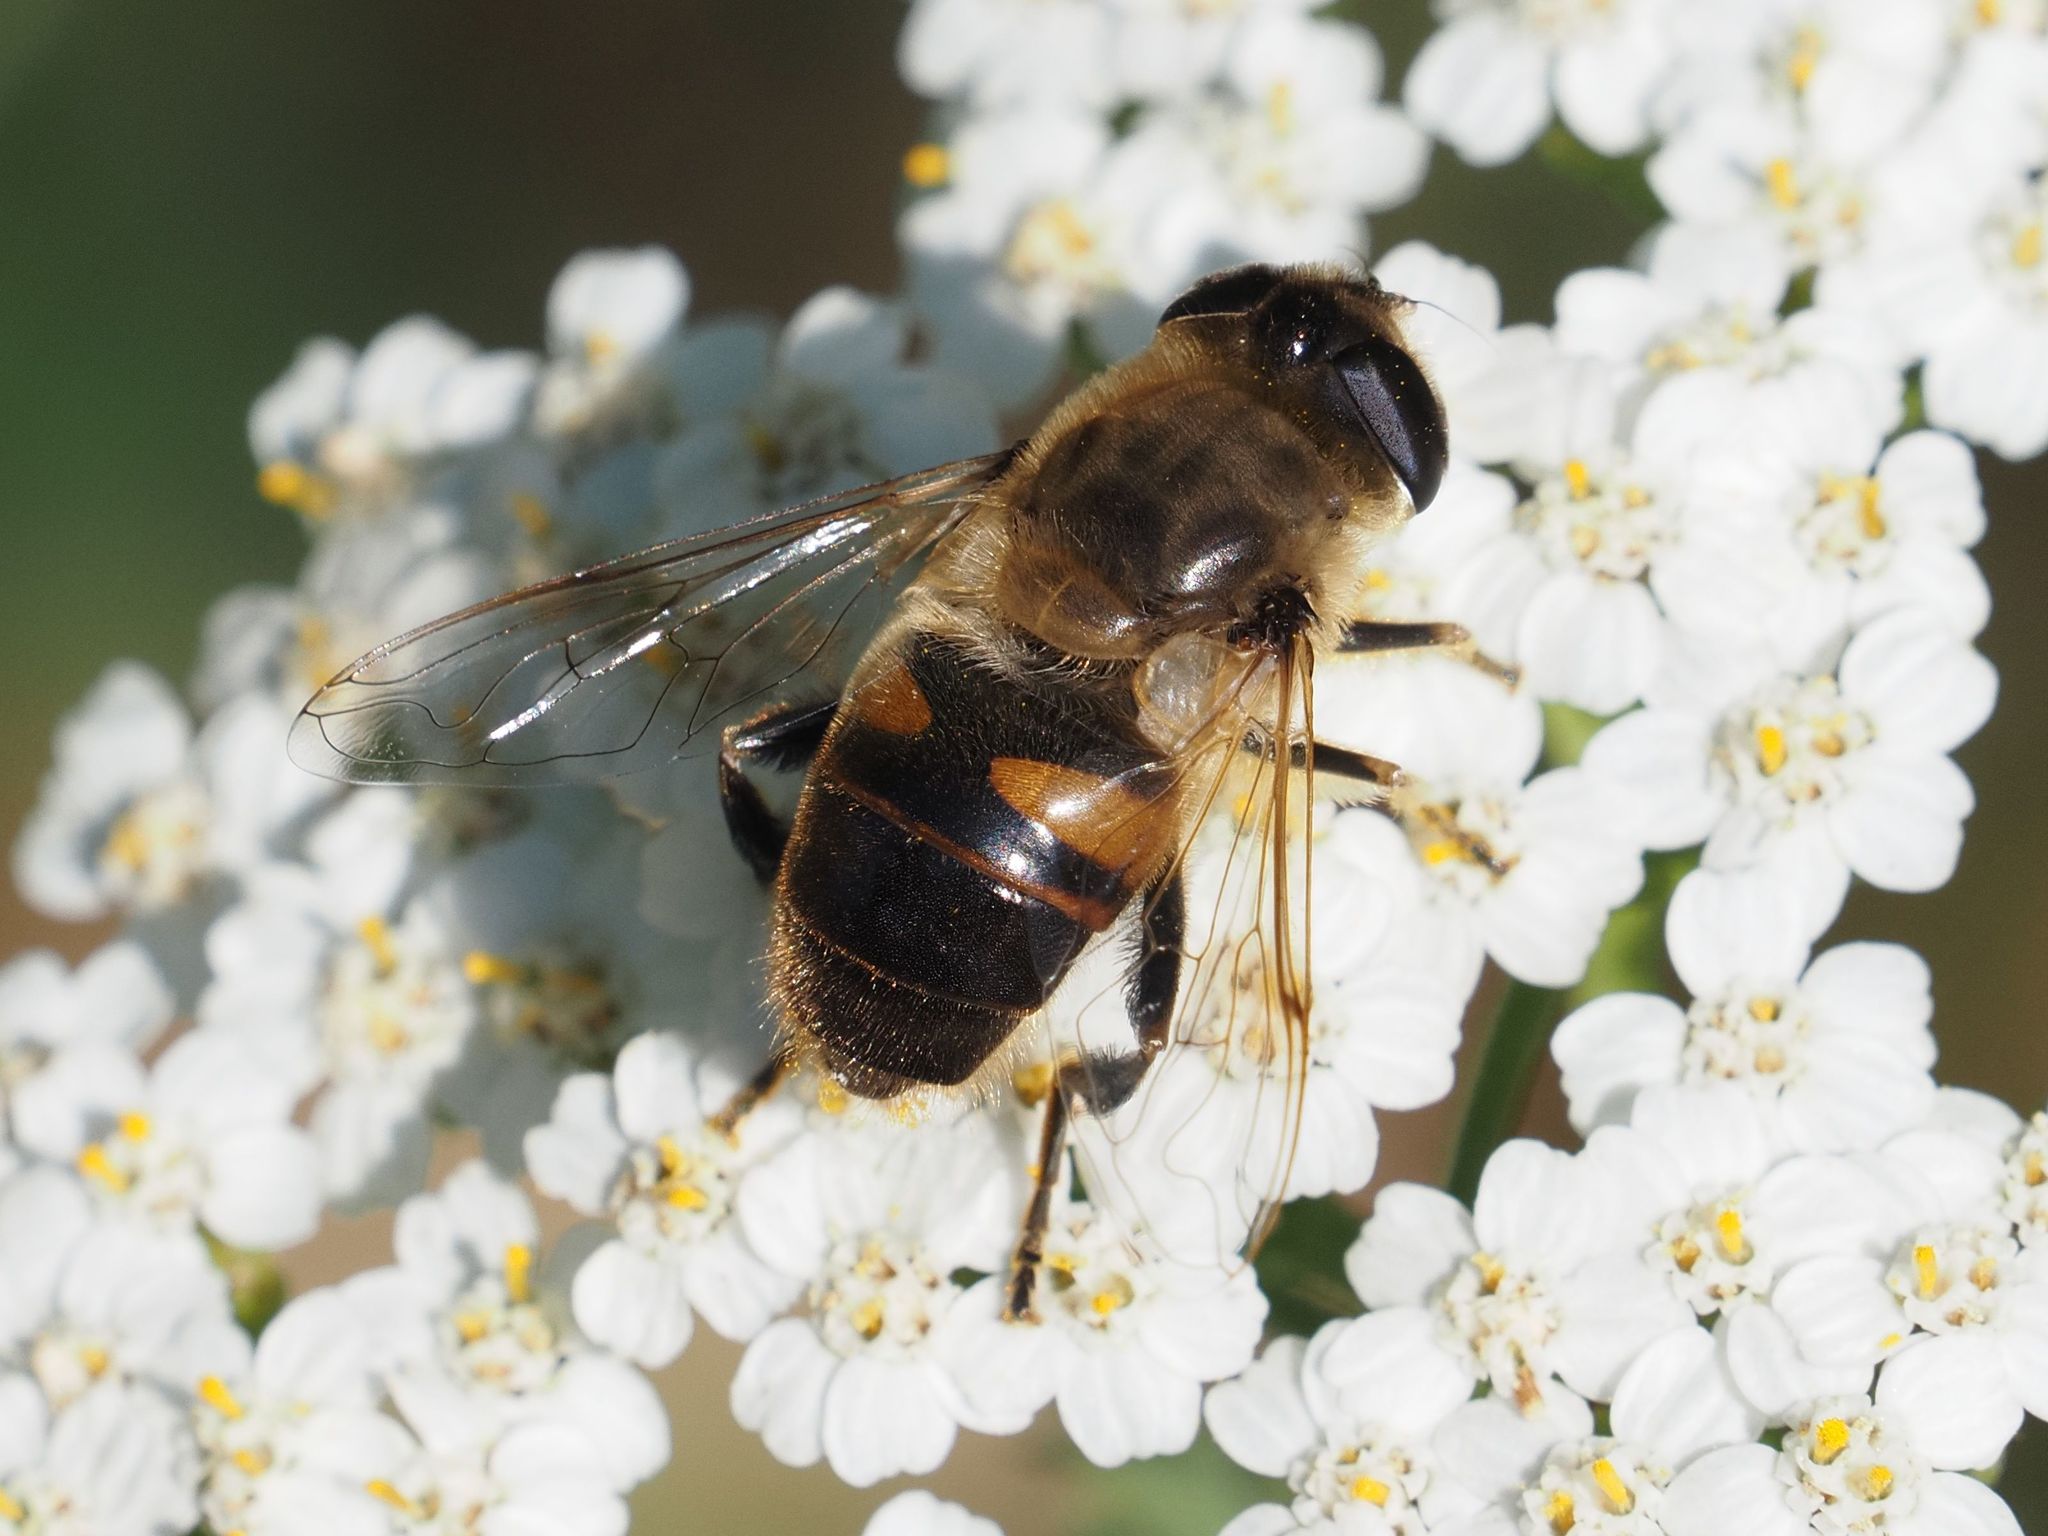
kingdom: Animalia
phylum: Arthropoda
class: Insecta
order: Diptera
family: Syrphidae
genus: Eristalis
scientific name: Eristalis tenax
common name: Drone fly
